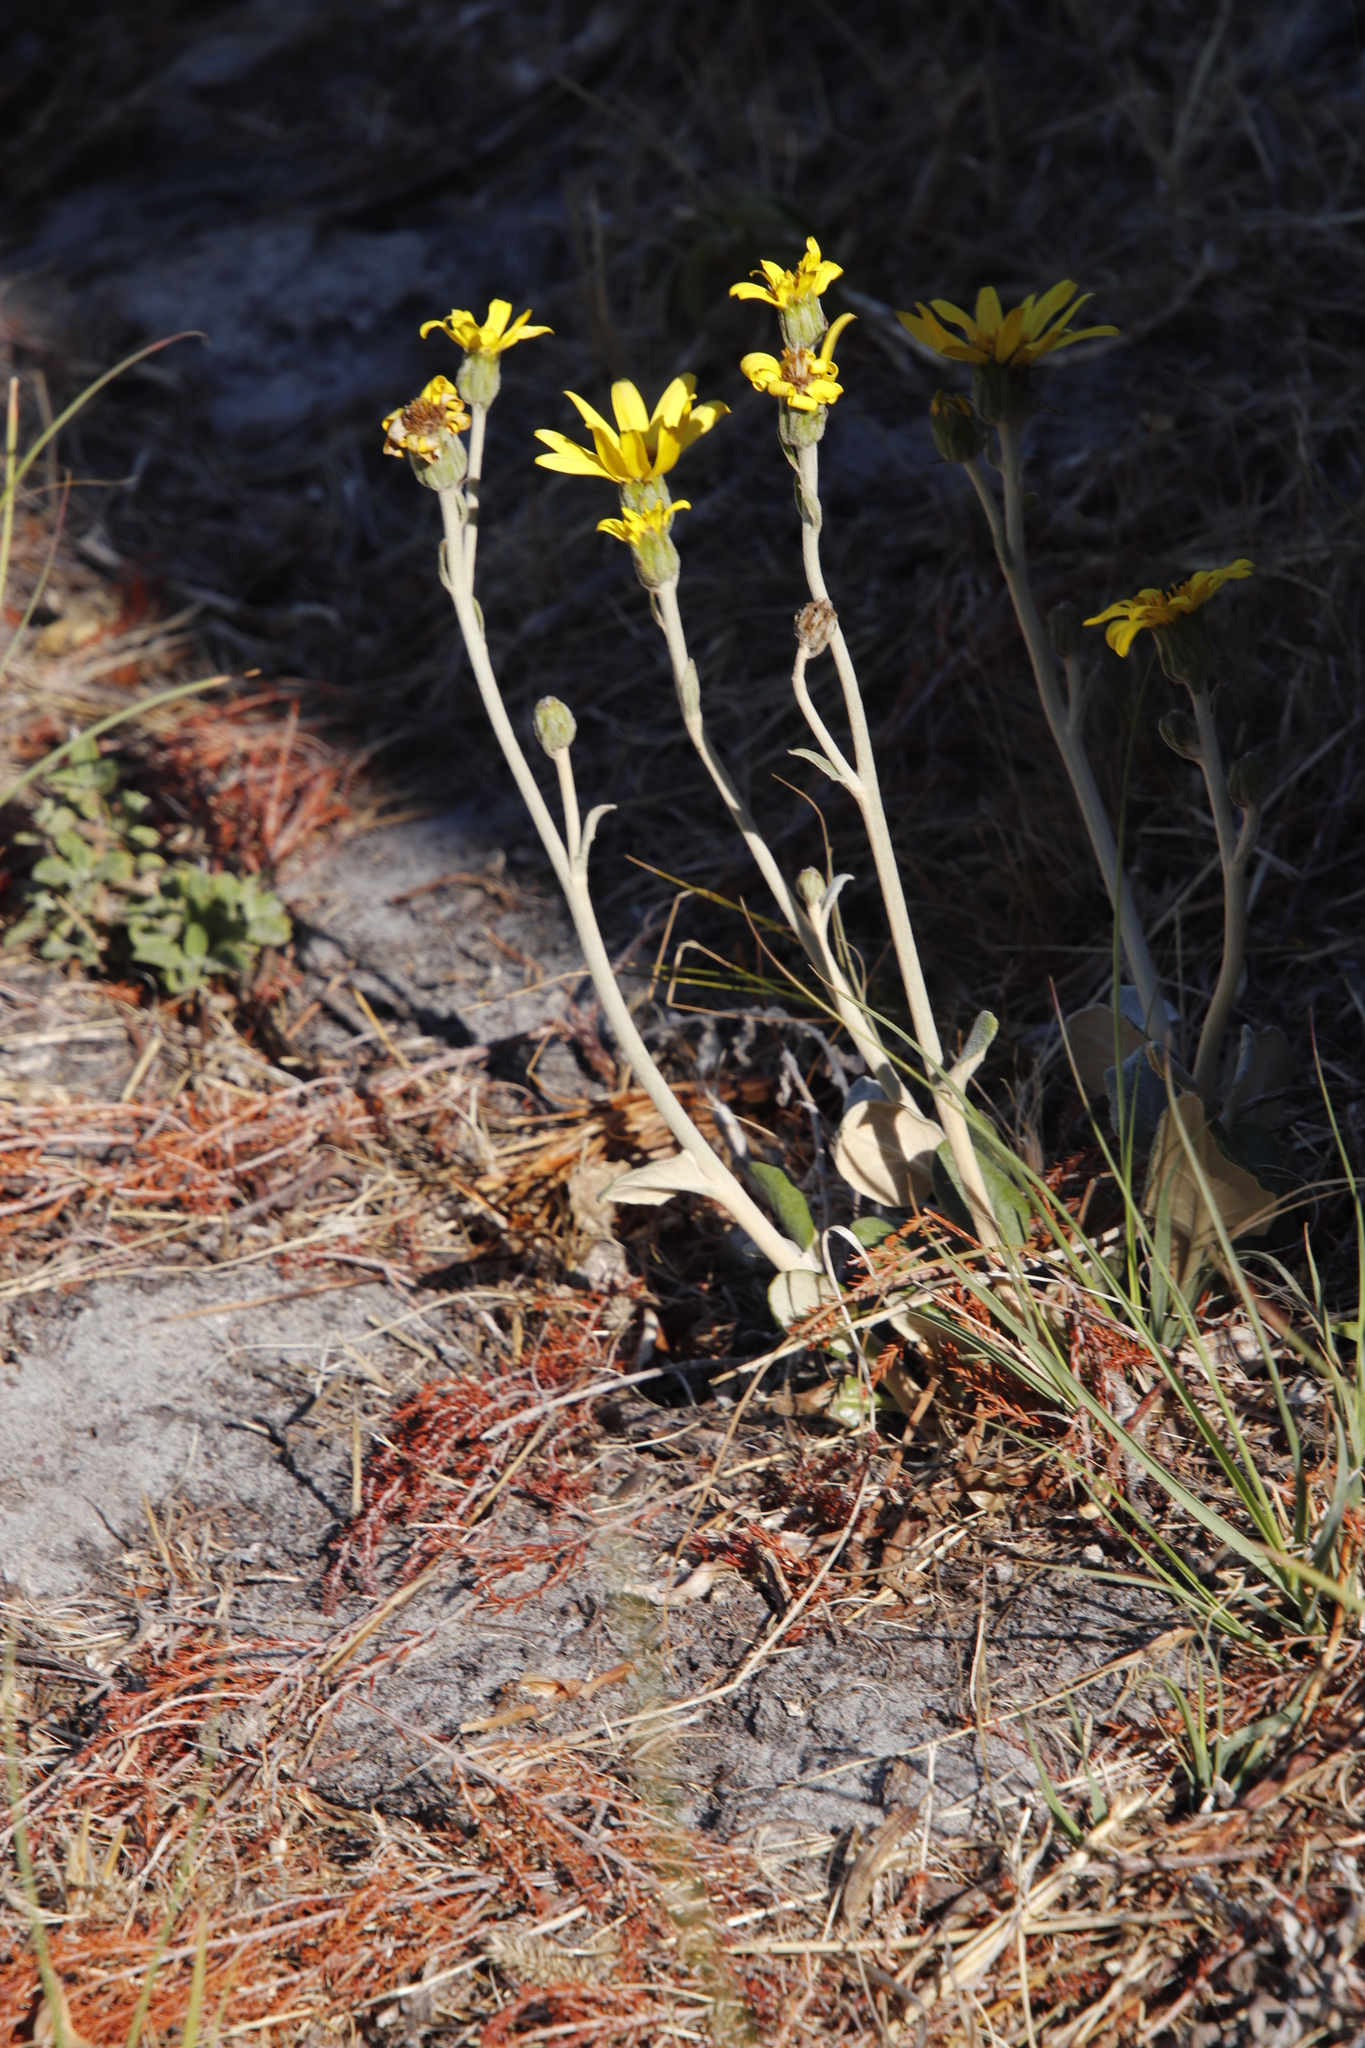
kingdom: Plantae
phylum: Tracheophyta
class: Magnoliopsida
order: Asterales
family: Asteraceae
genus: Capelio
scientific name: Capelio tabularis
